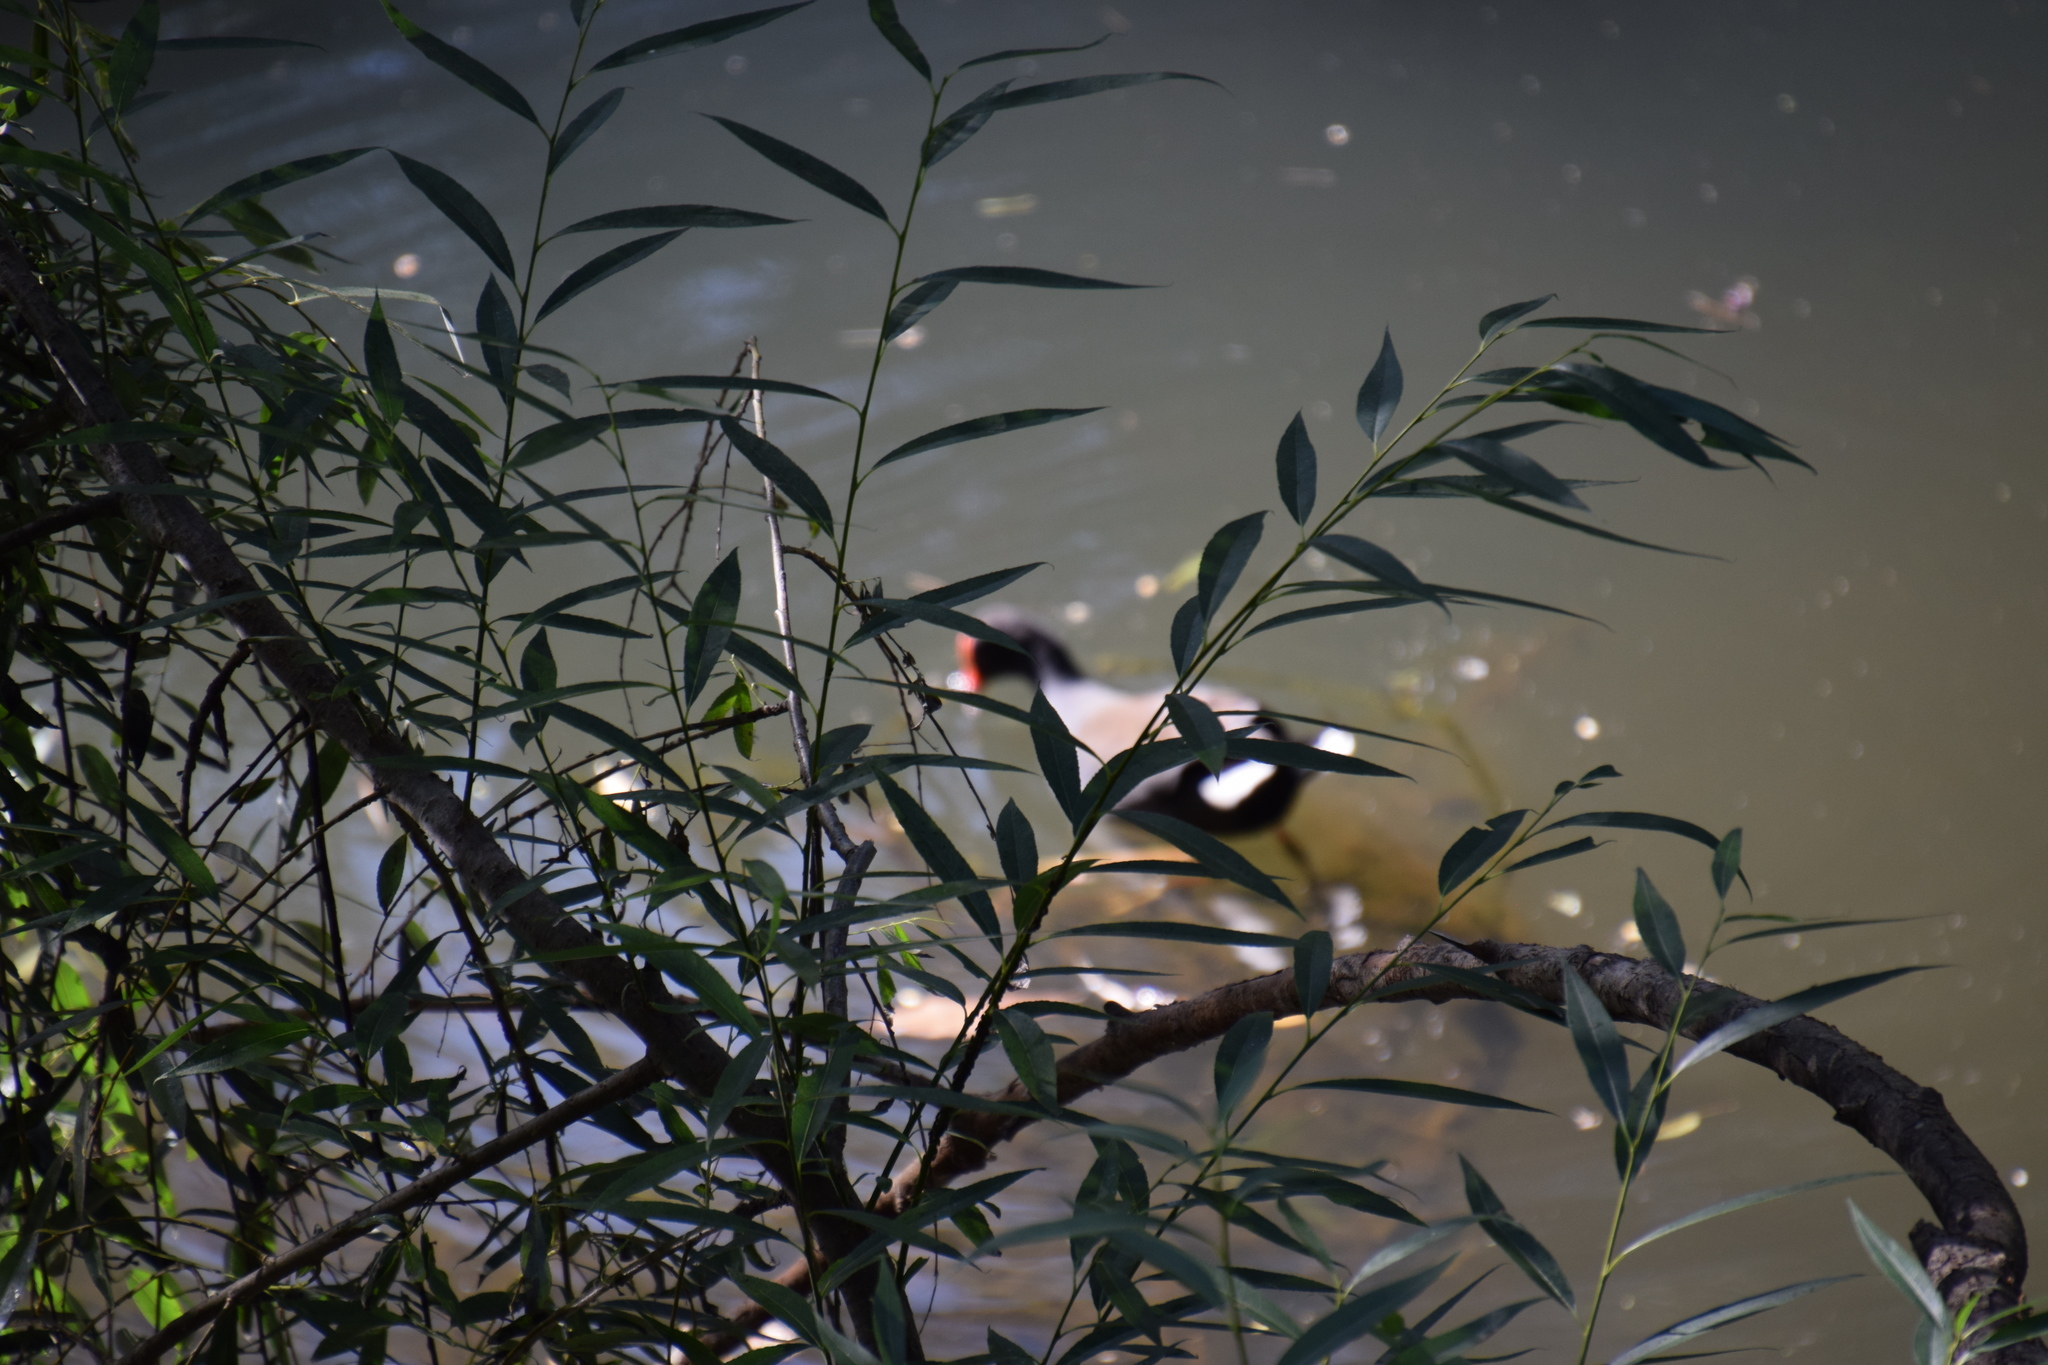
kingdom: Animalia
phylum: Chordata
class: Aves
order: Gruiformes
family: Rallidae
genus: Gallinula
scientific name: Gallinula tenebrosa
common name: Dusky moorhen
